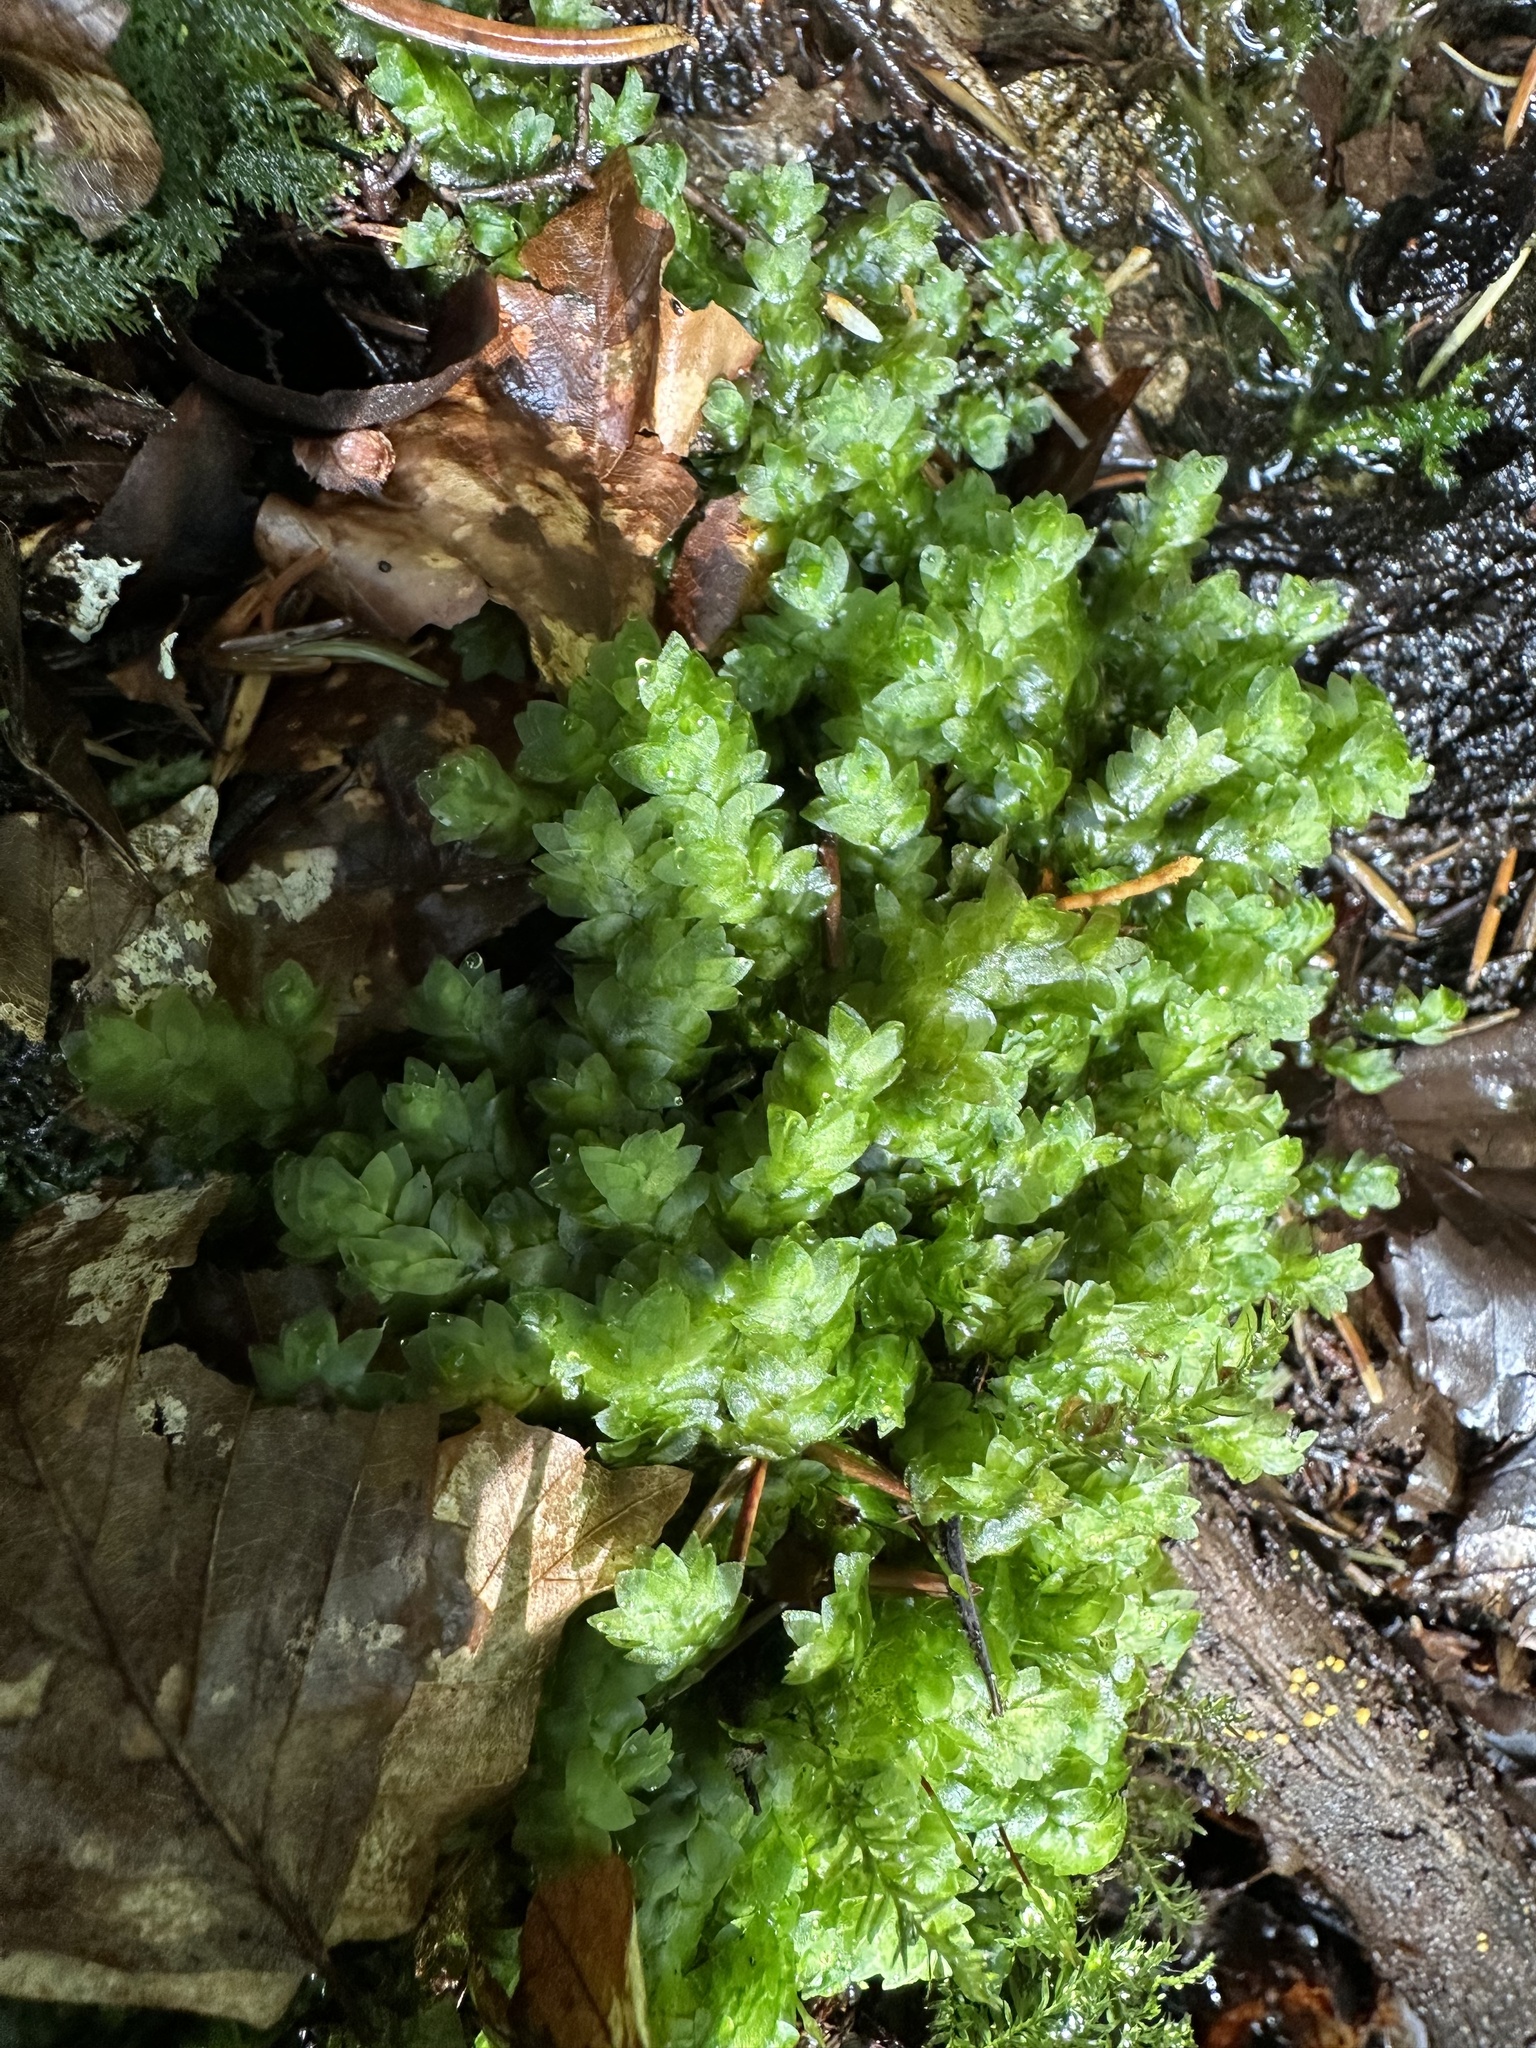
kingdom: Plantae
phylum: Bryophyta
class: Bryopsida
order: Hookeriales
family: Hookeriaceae
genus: Hookeria
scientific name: Hookeria lucens
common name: Shining hookeria
